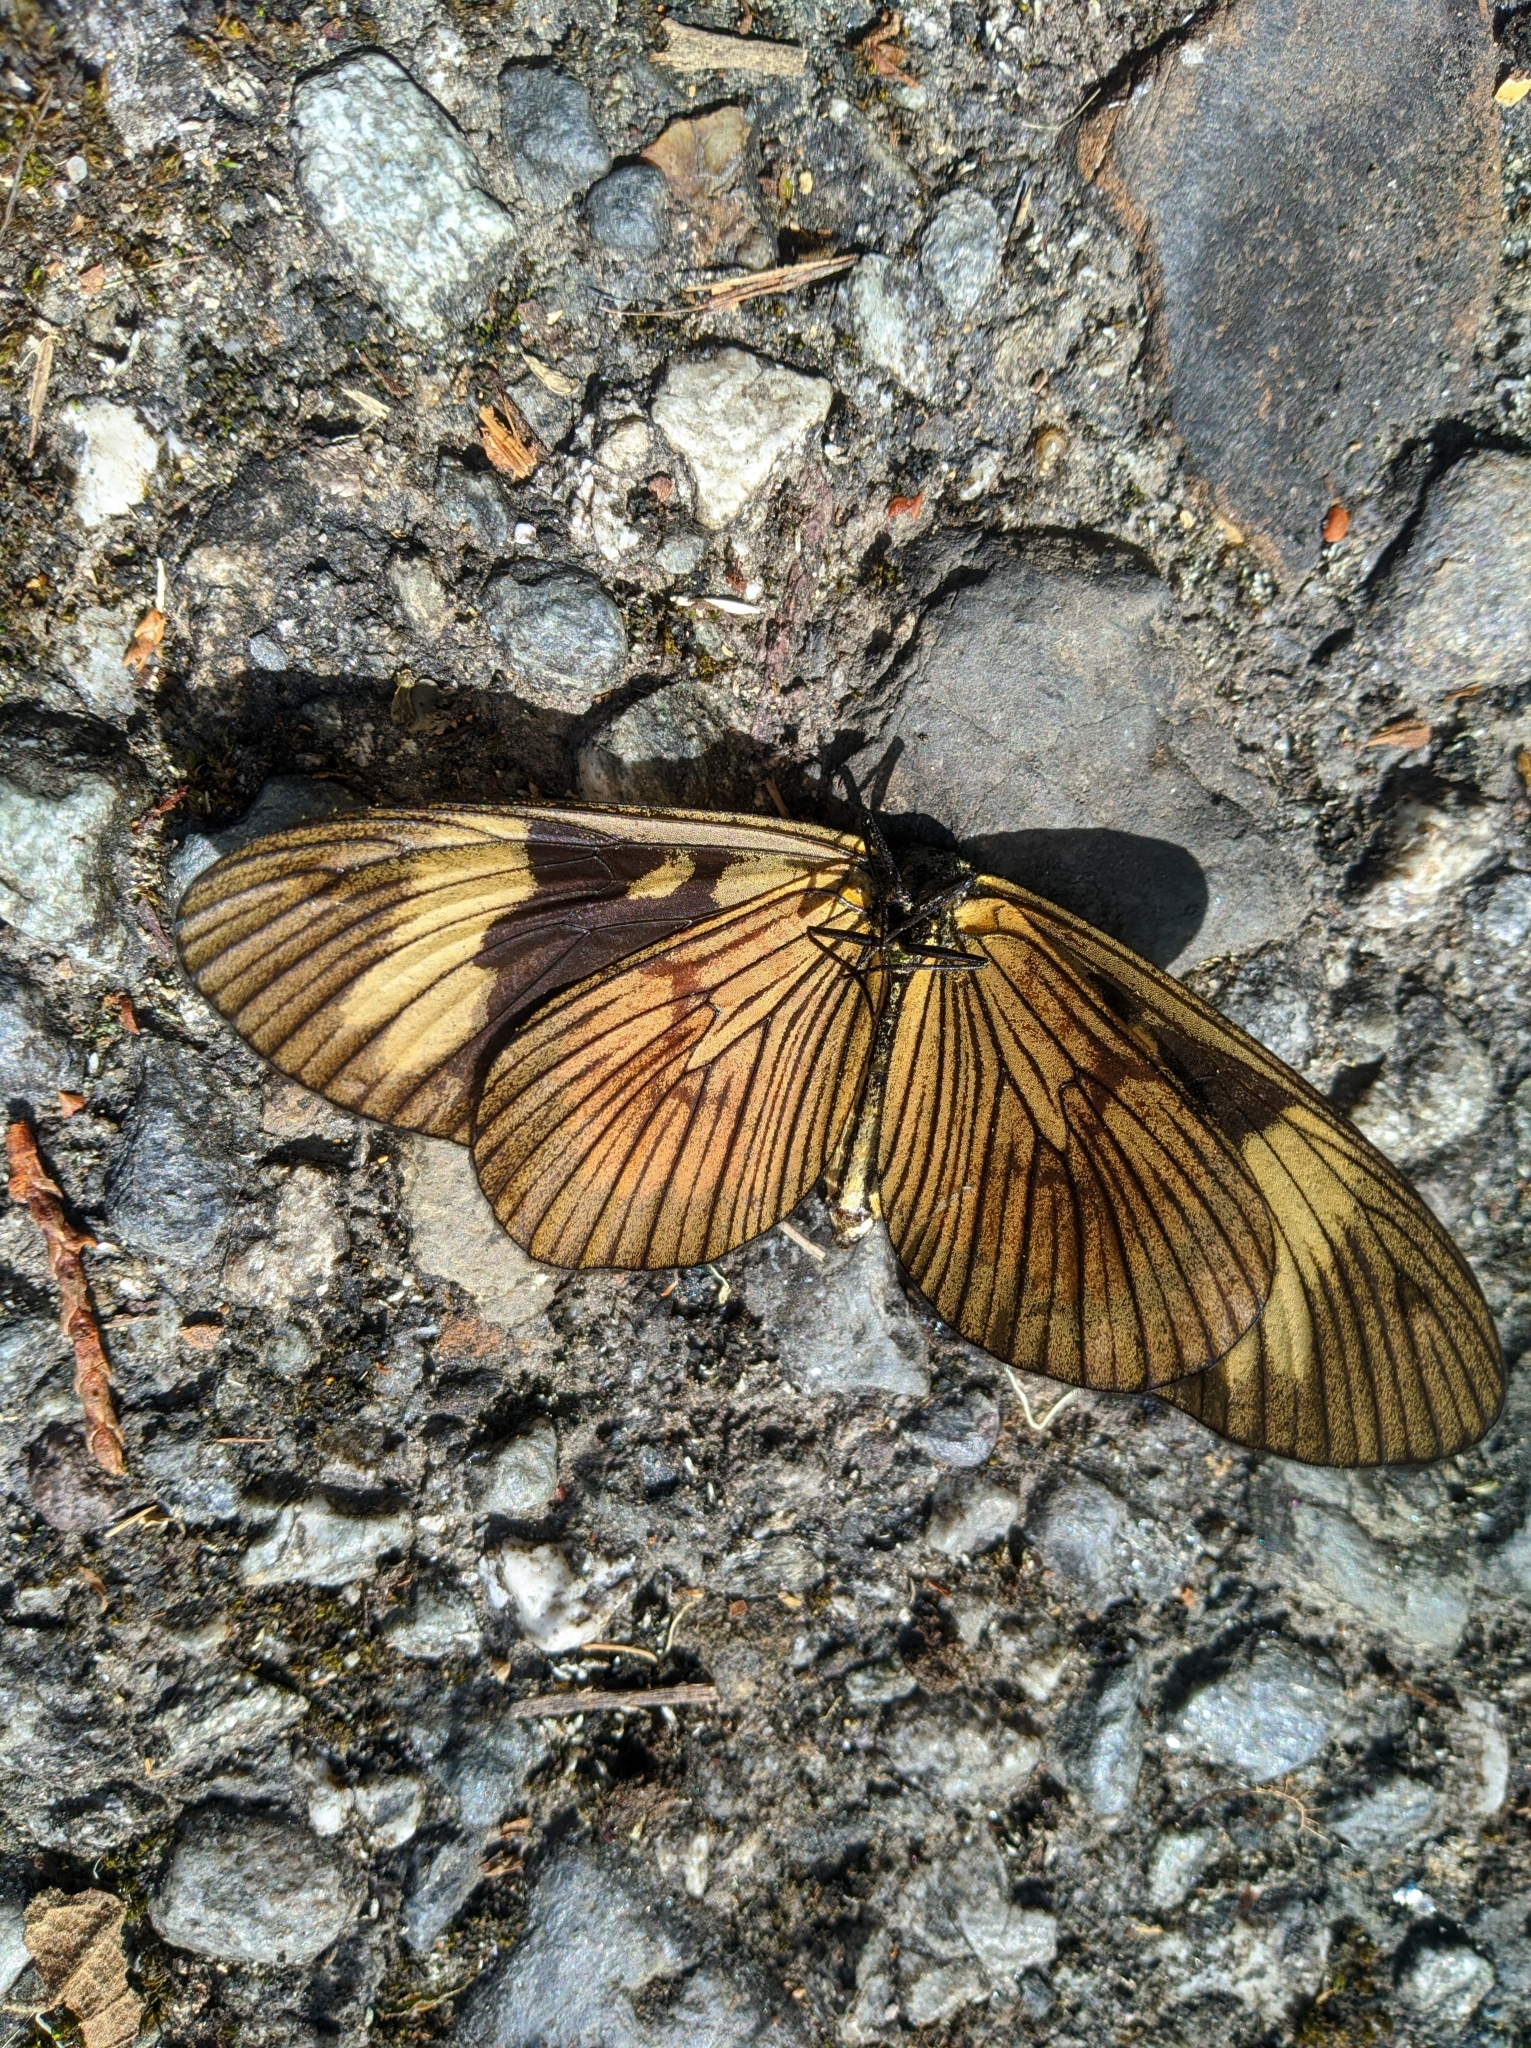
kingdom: Animalia
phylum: Arthropoda
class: Insecta
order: Lepidoptera
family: Nymphalidae
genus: Actinote
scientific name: Actinote anteas
